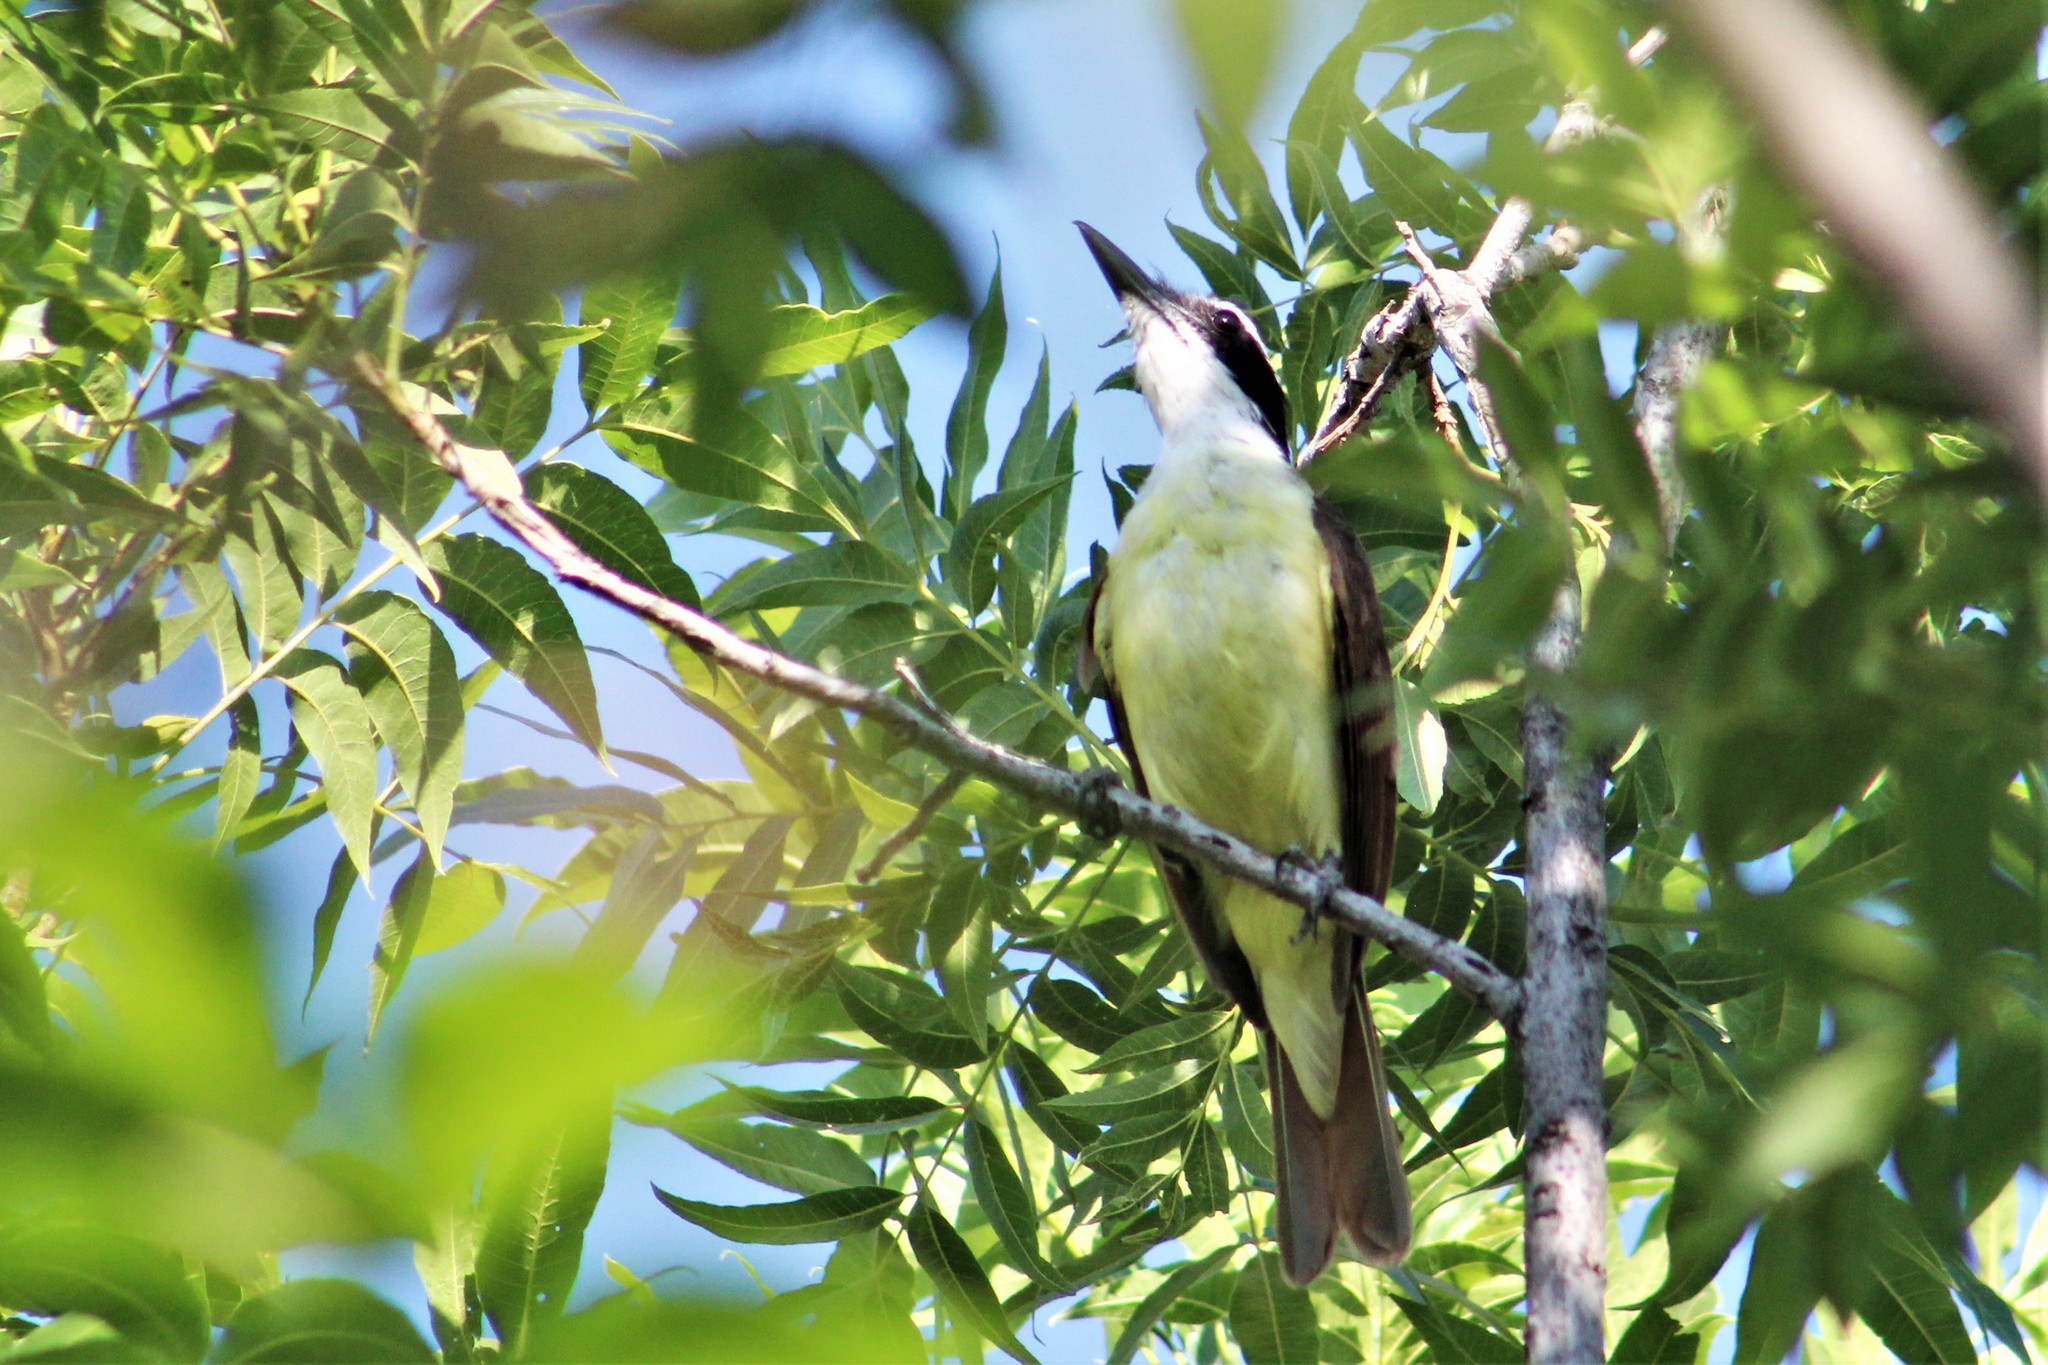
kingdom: Animalia
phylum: Chordata
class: Aves
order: Passeriformes
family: Tyrannidae
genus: Pitangus
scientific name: Pitangus sulphuratus
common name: Great kiskadee
